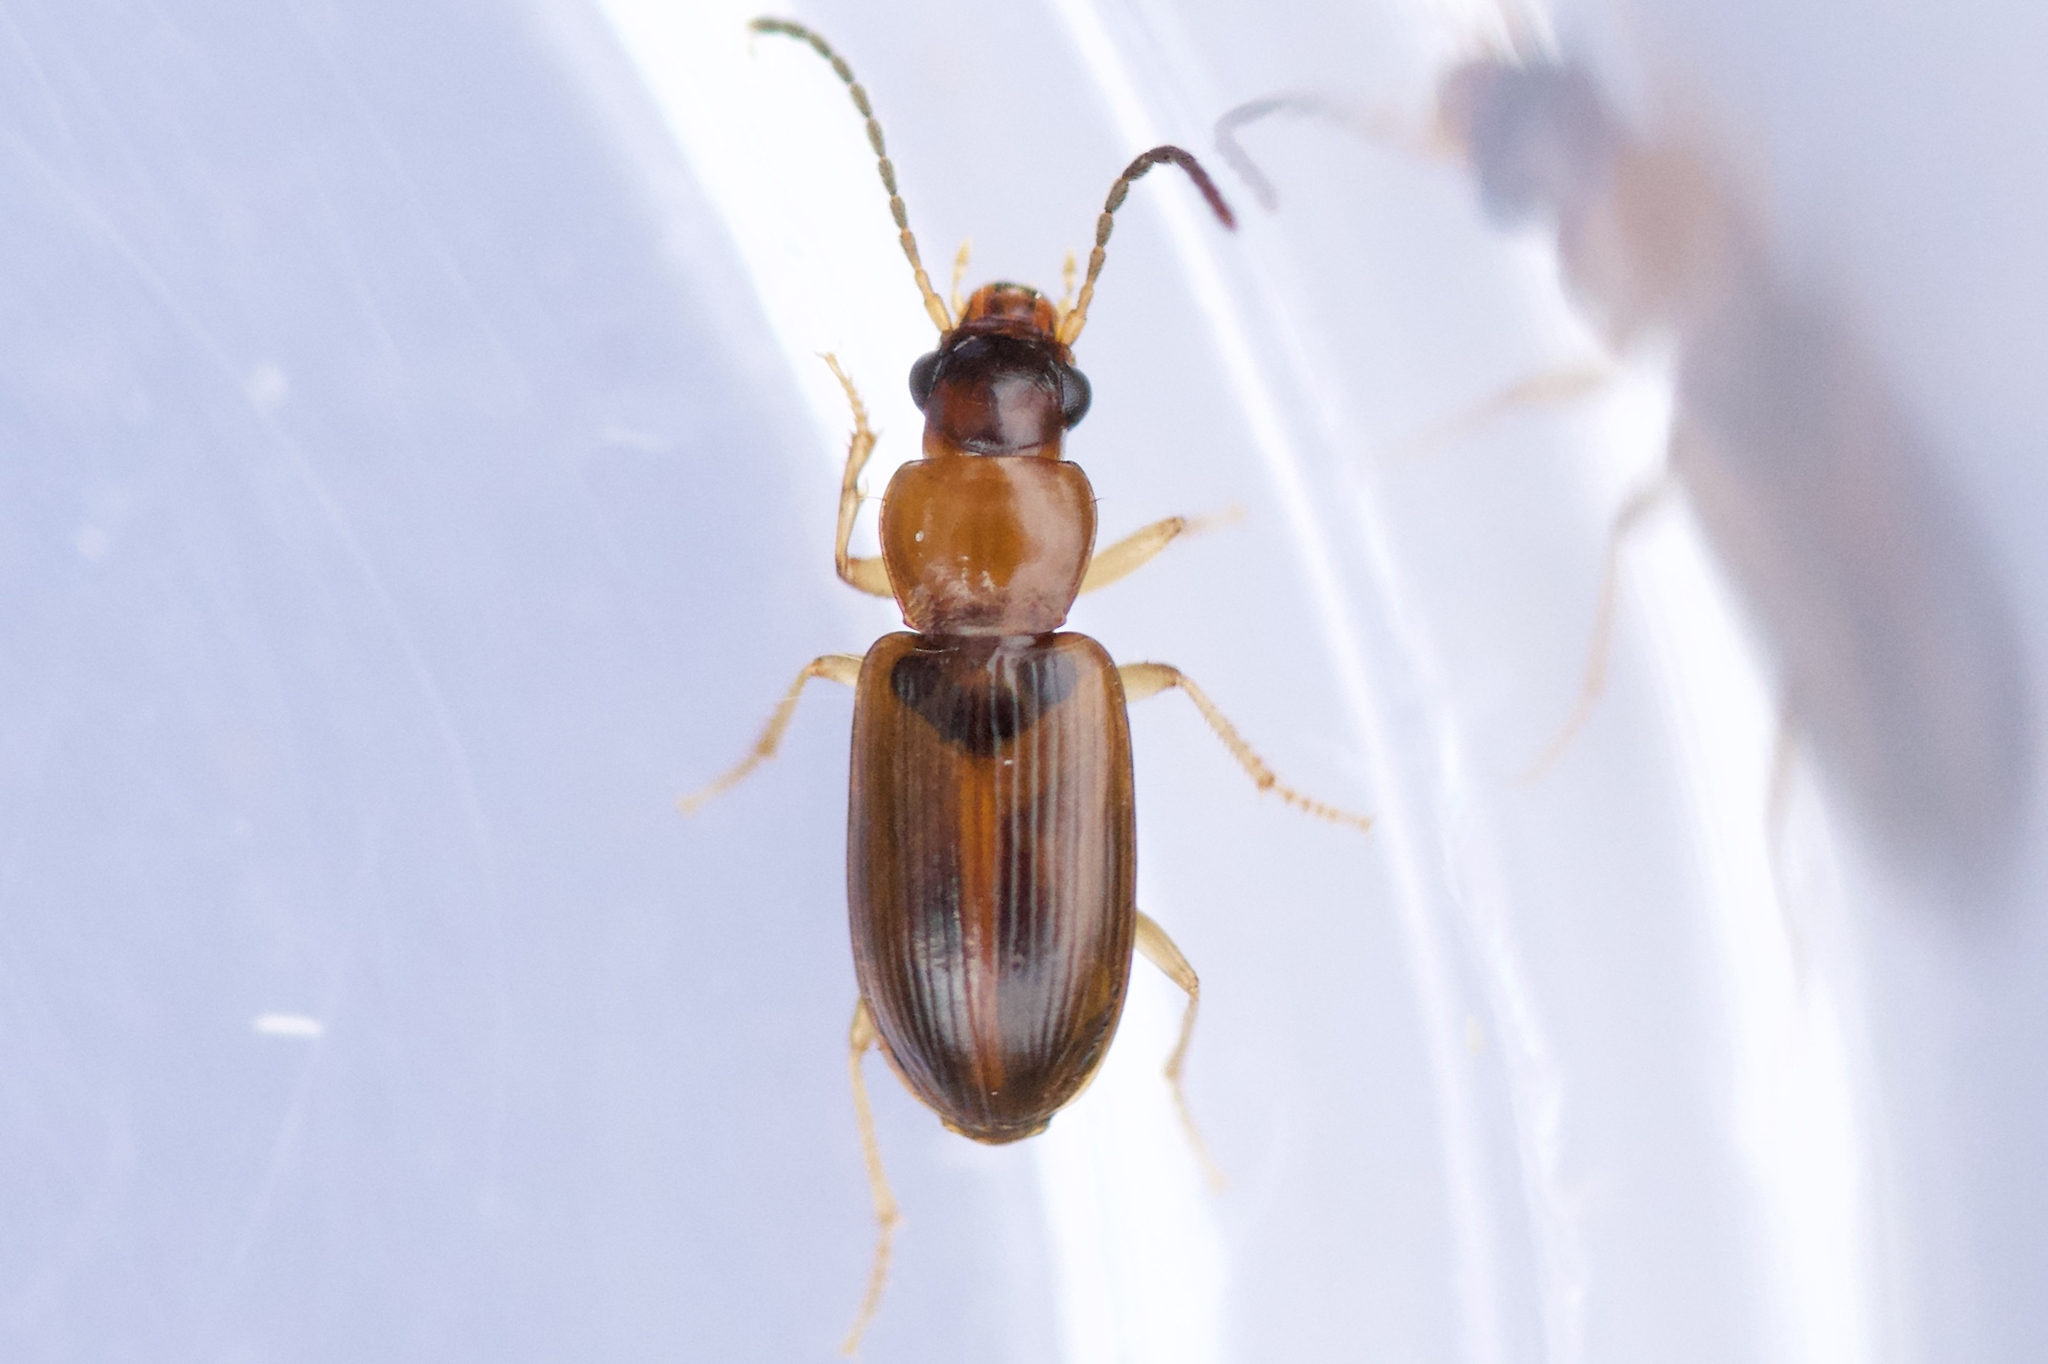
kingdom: Animalia
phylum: Arthropoda
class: Insecta
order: Coleoptera
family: Carabidae
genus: Bradycellus
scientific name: Bradycellus nigriceps
